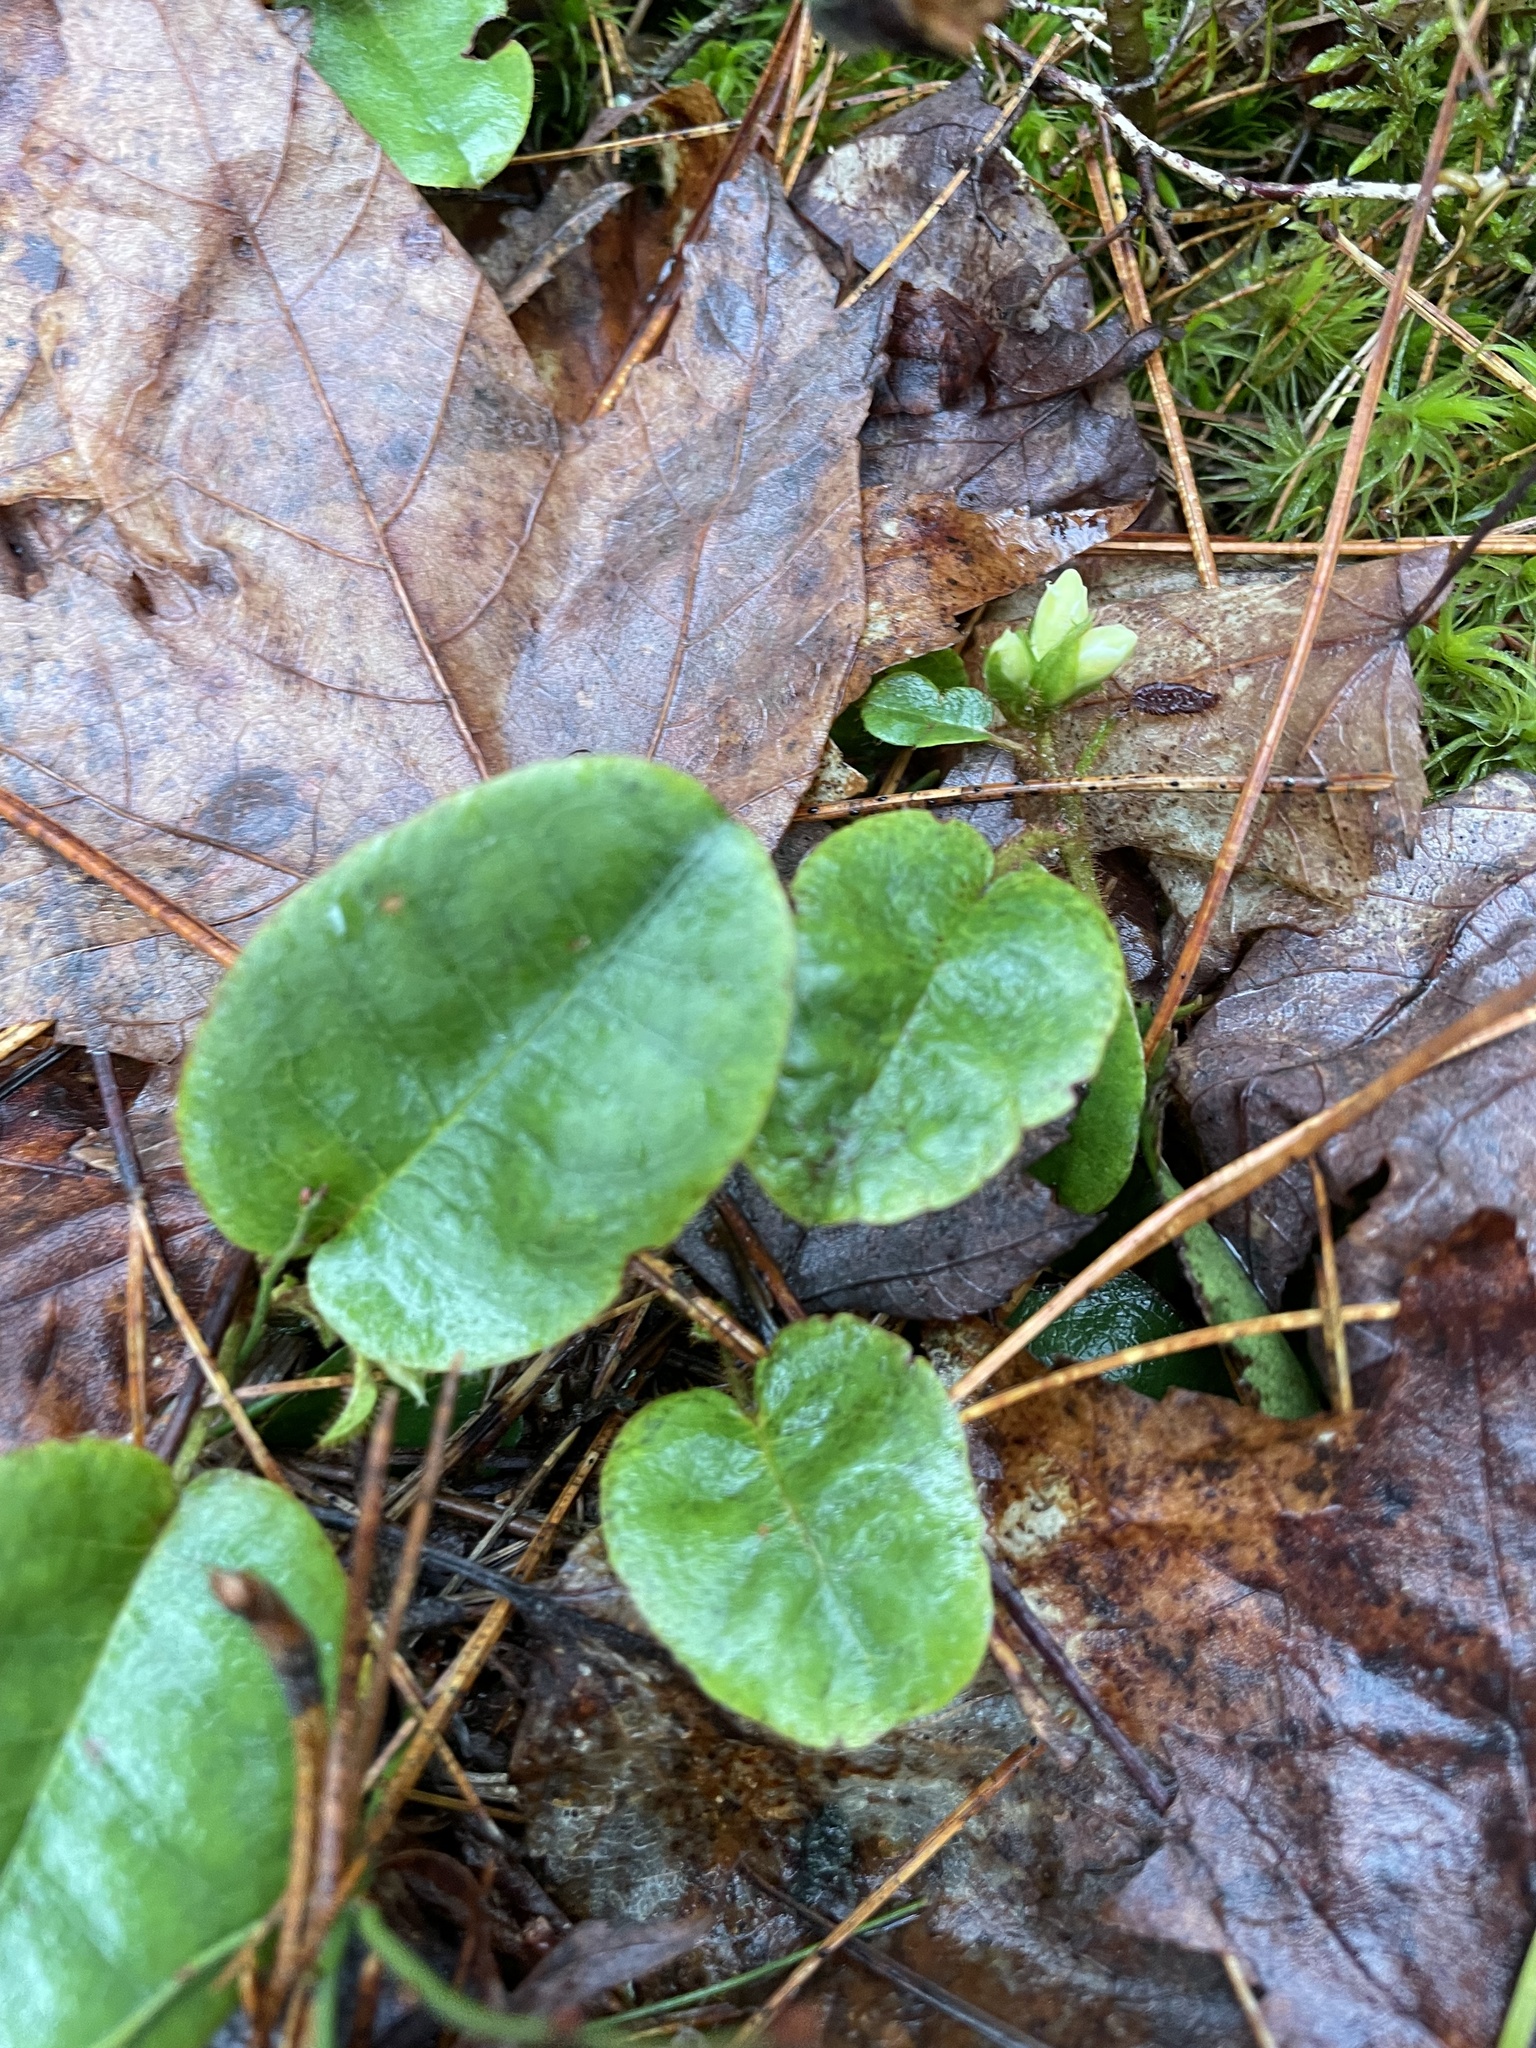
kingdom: Plantae
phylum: Tracheophyta
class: Magnoliopsida
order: Ericales
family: Ericaceae
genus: Epigaea
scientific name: Epigaea repens
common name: Gravelroot
